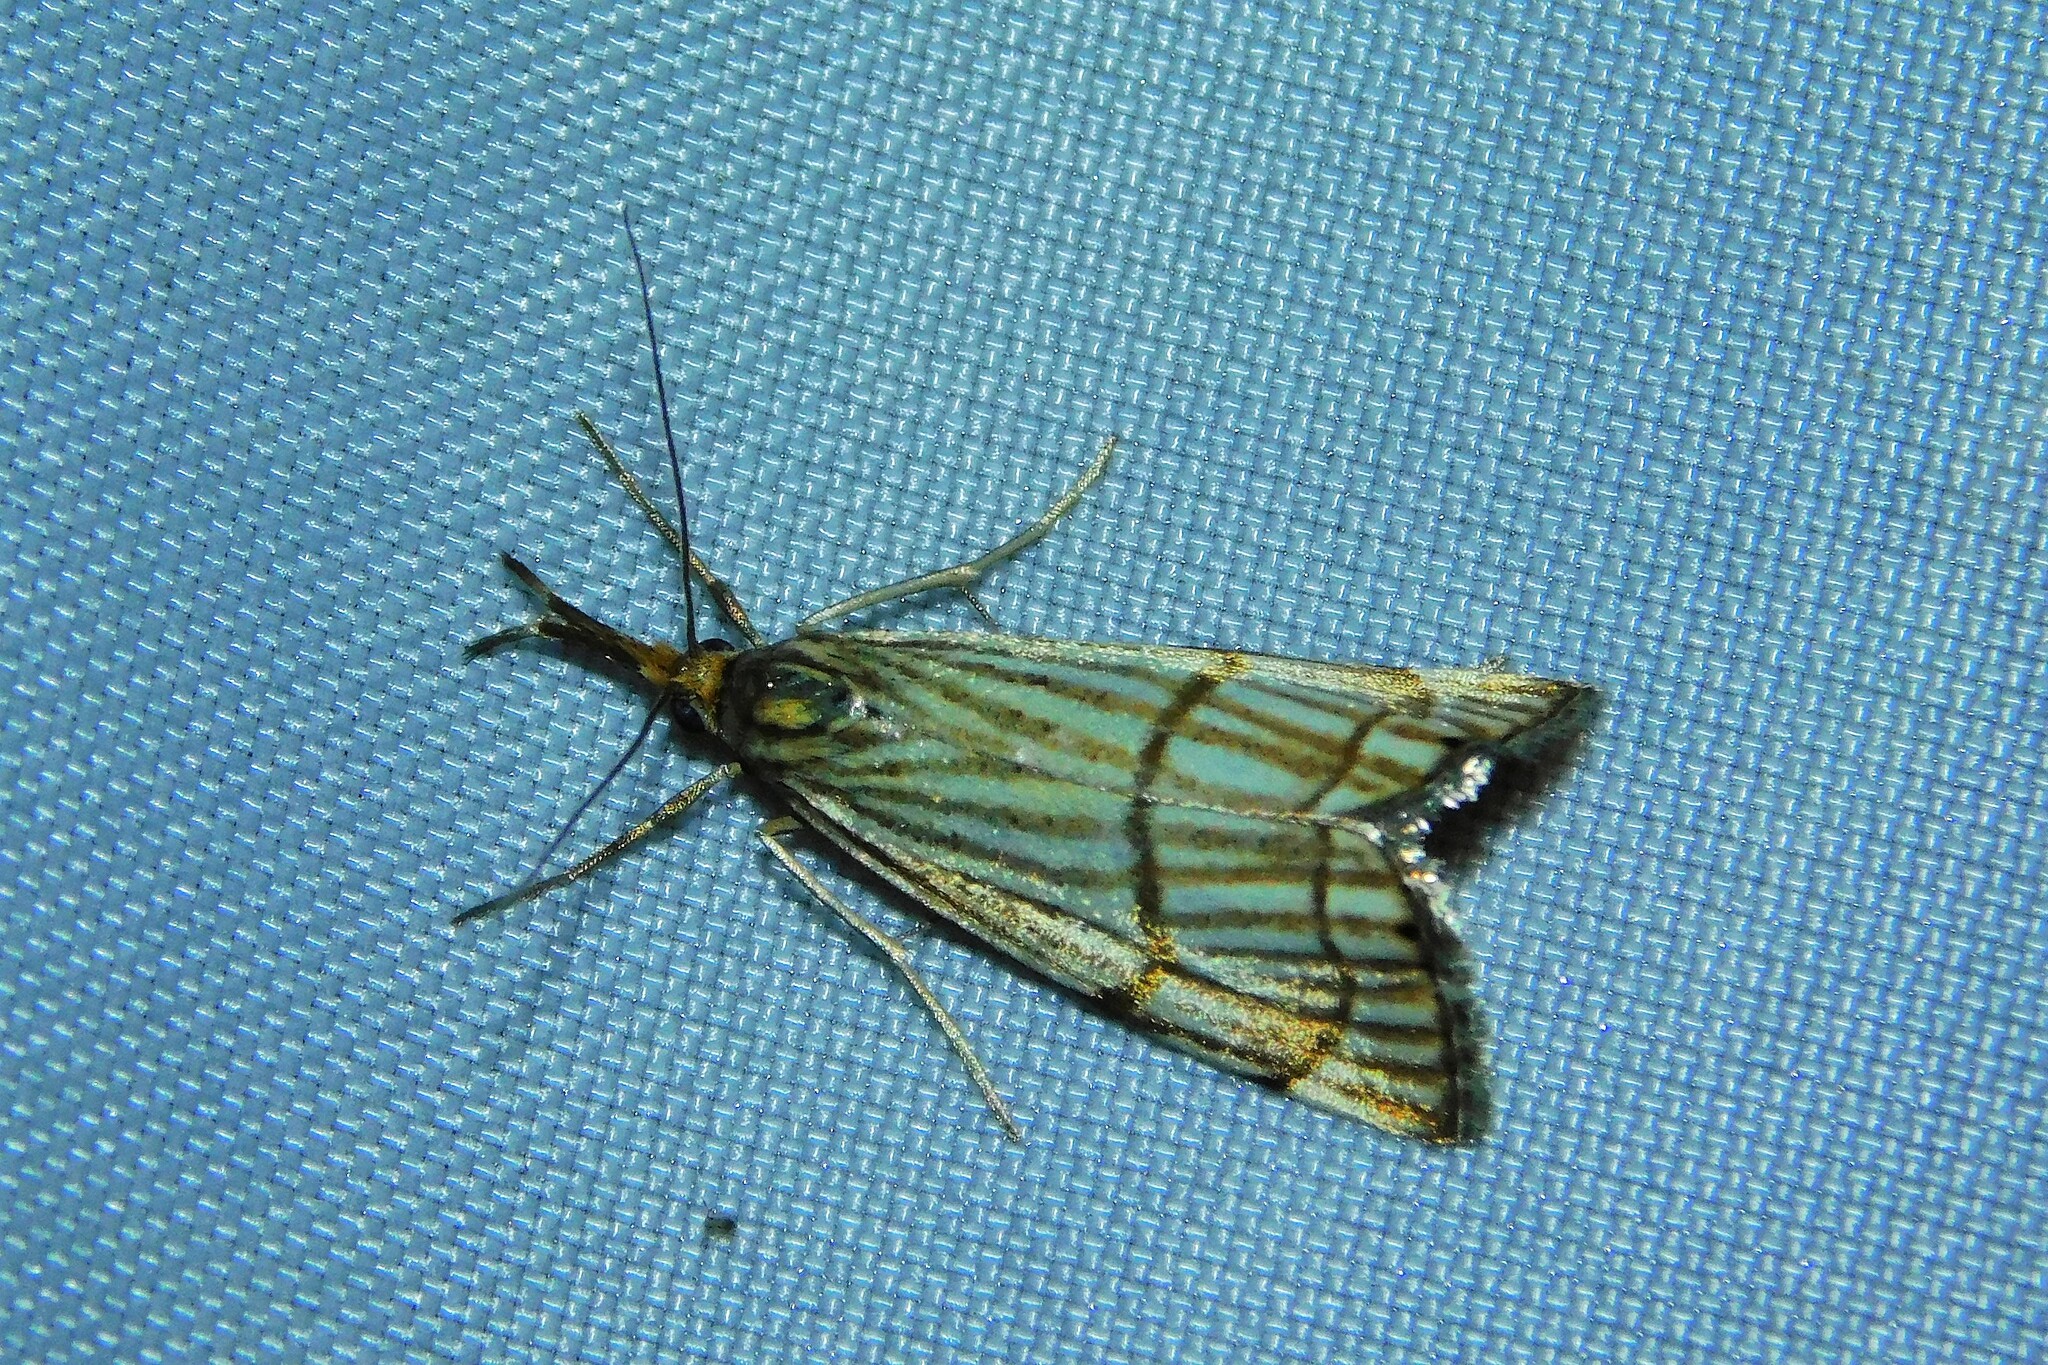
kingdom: Animalia
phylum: Arthropoda
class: Insecta
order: Lepidoptera
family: Crambidae
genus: Chrysocrambus
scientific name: Chrysocrambus linetella
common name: Orange-bar grass-veneer
